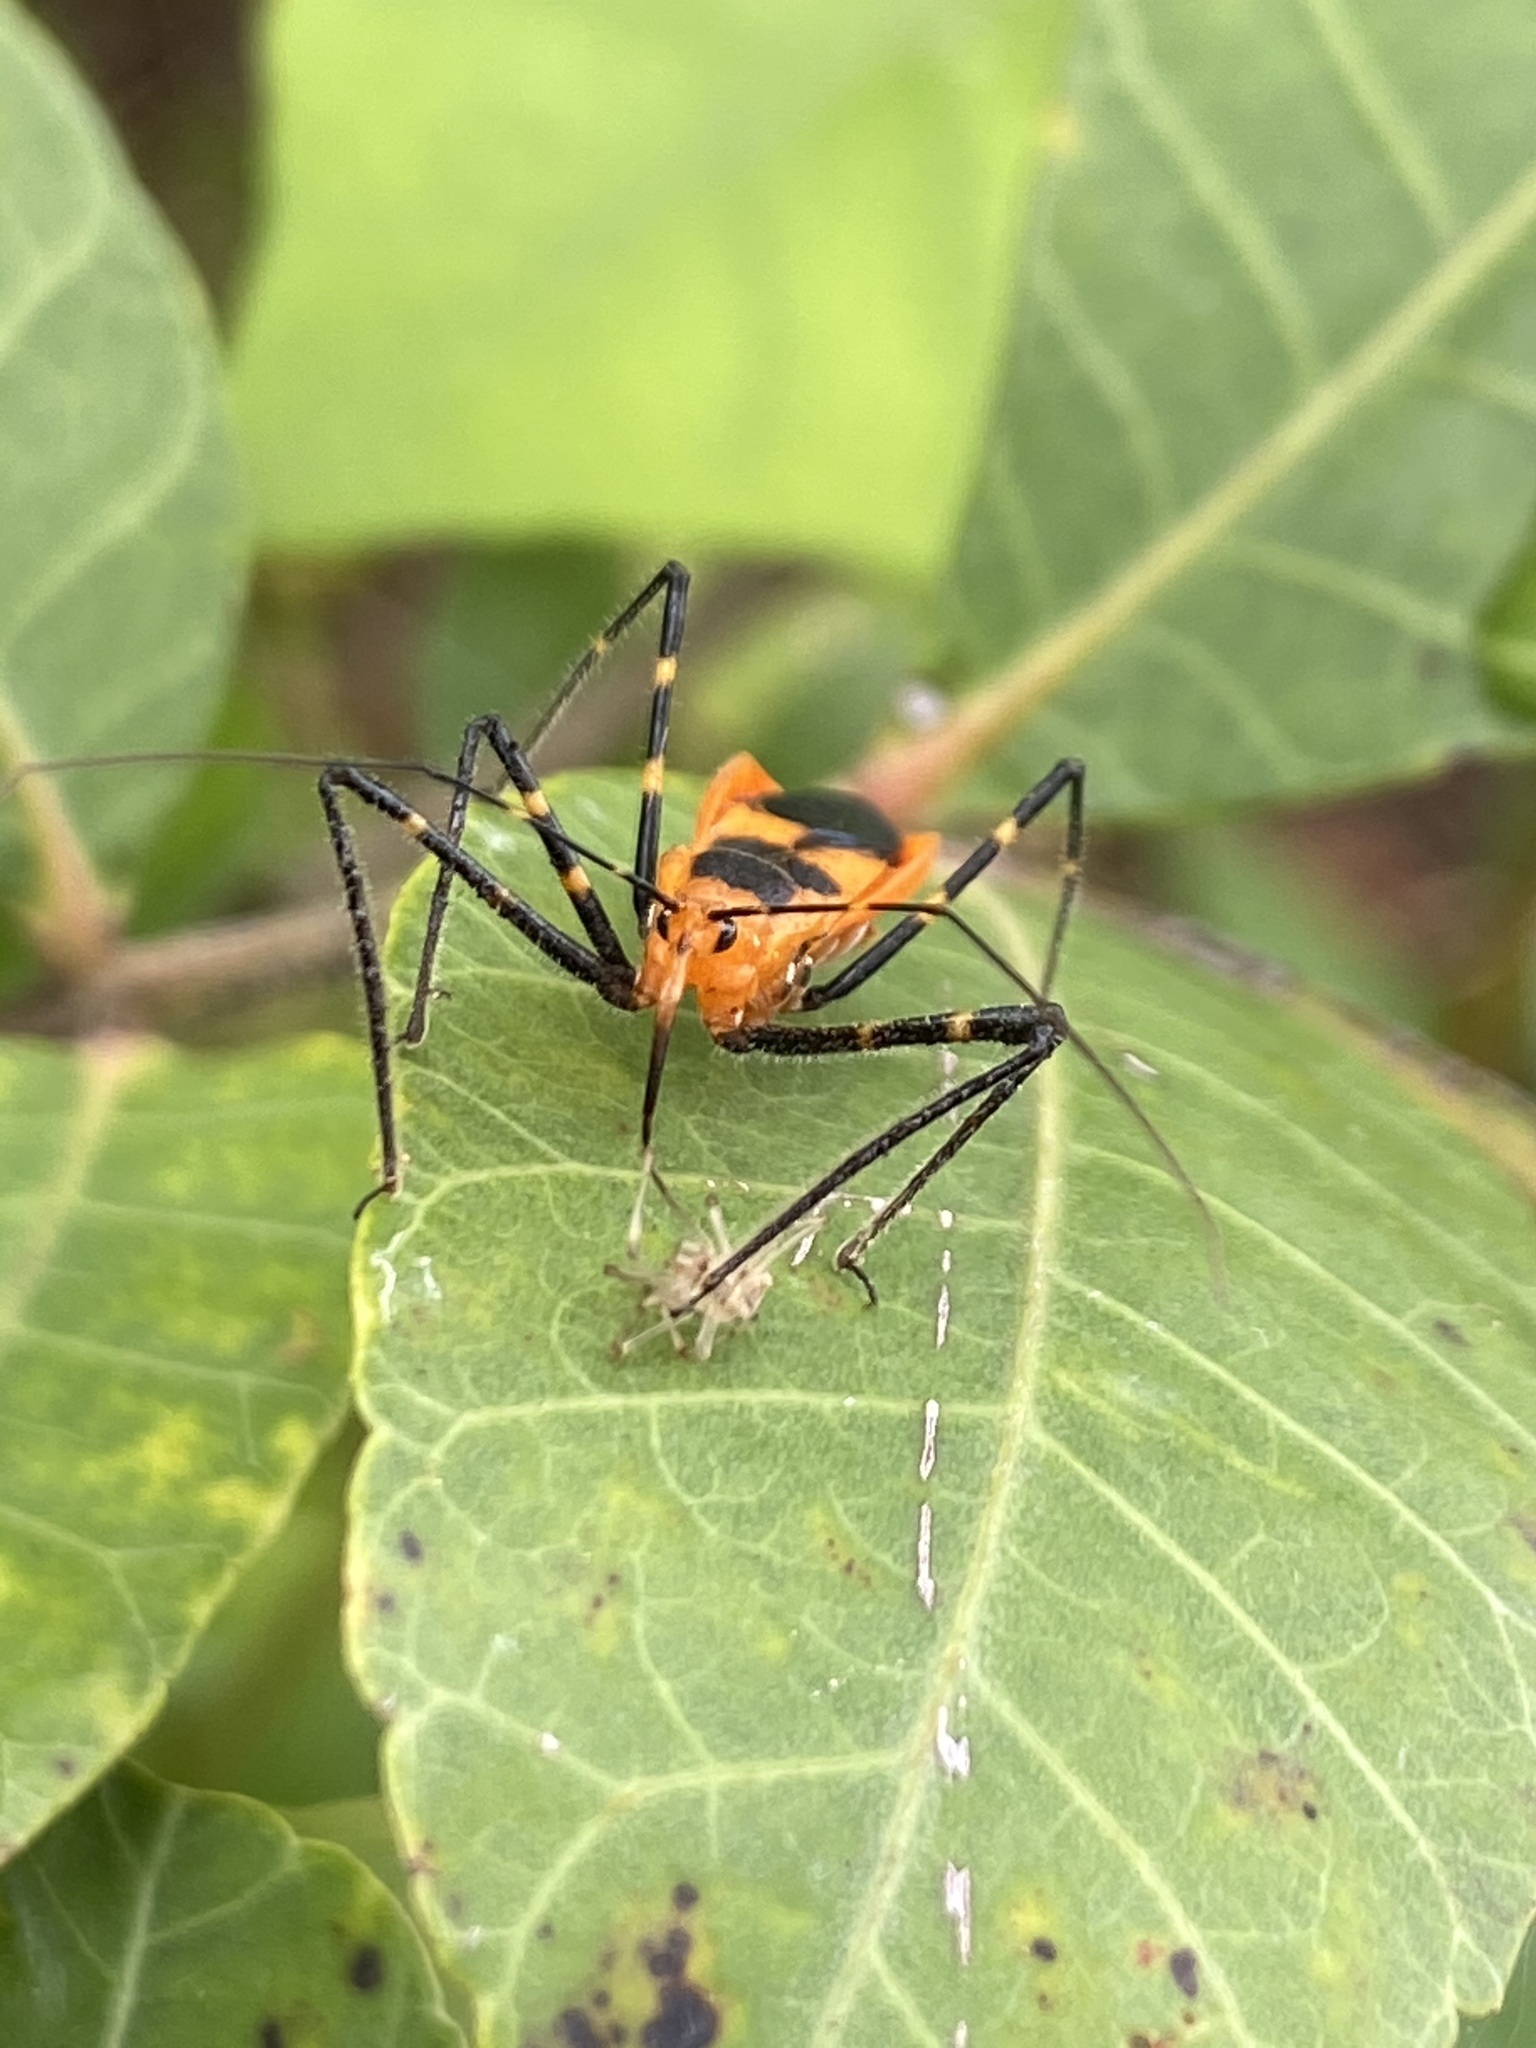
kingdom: Animalia
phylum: Arthropoda
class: Insecta
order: Hemiptera
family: Reduviidae
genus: Zelus
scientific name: Zelus longipes
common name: Milkweed assassin bug
